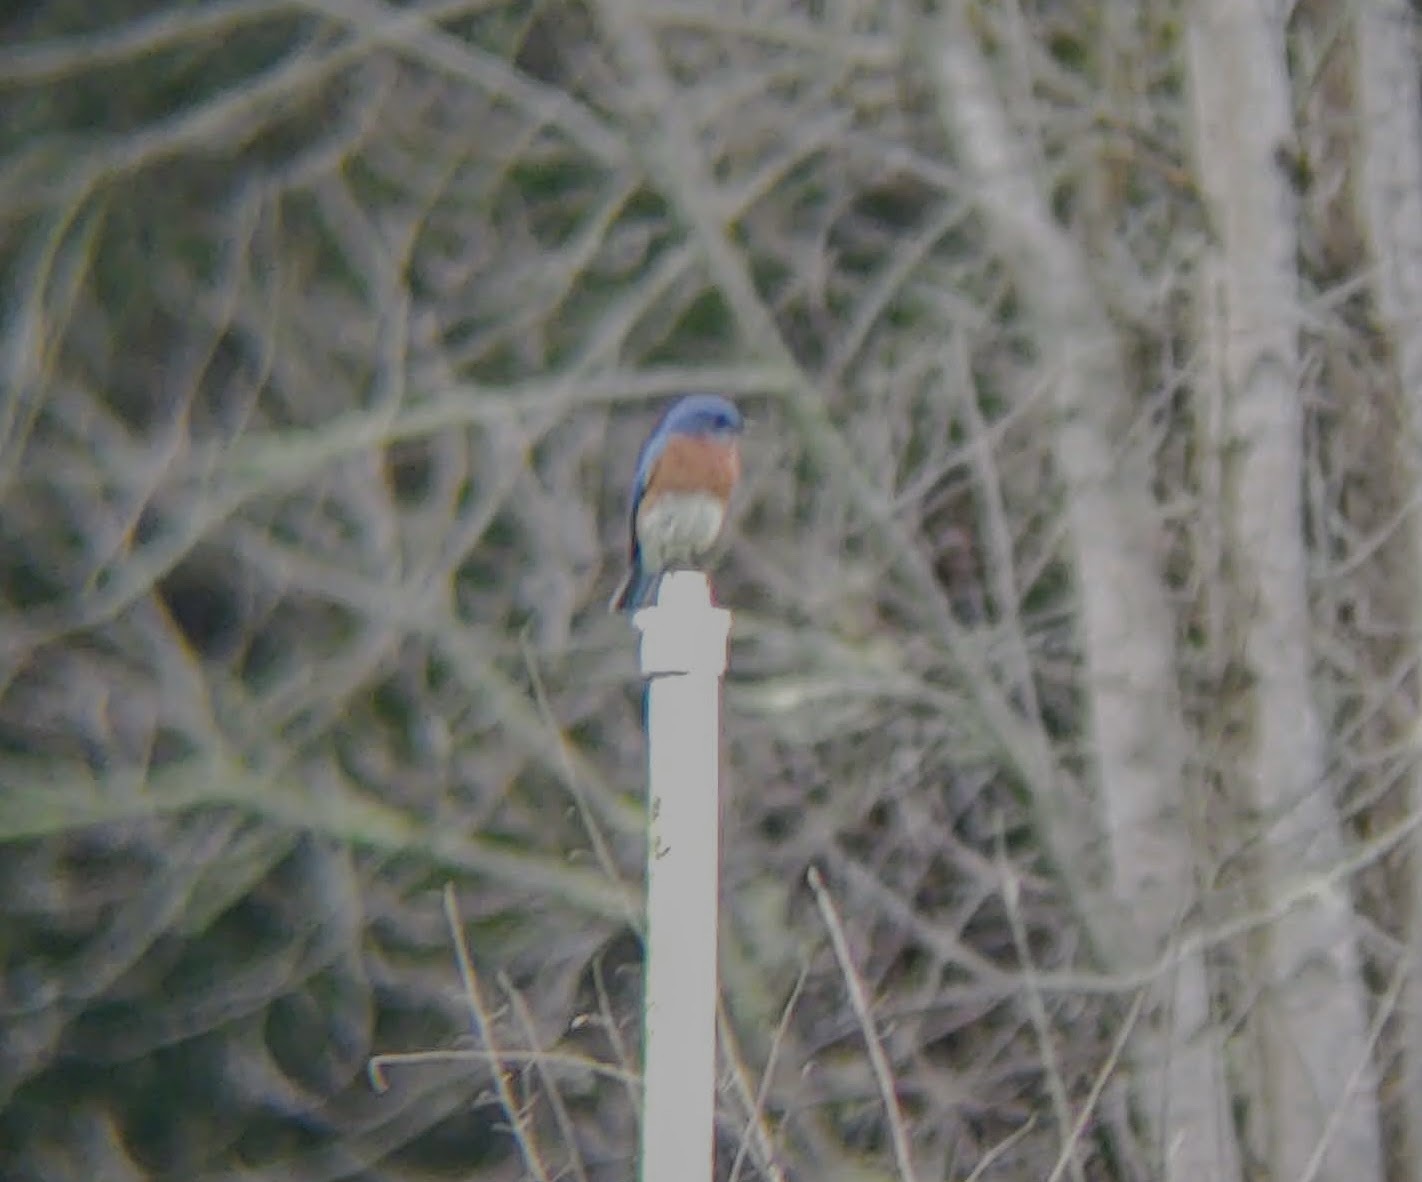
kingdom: Animalia
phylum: Chordata
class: Aves
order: Passeriformes
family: Turdidae
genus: Sialia
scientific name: Sialia sialis
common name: Eastern bluebird
